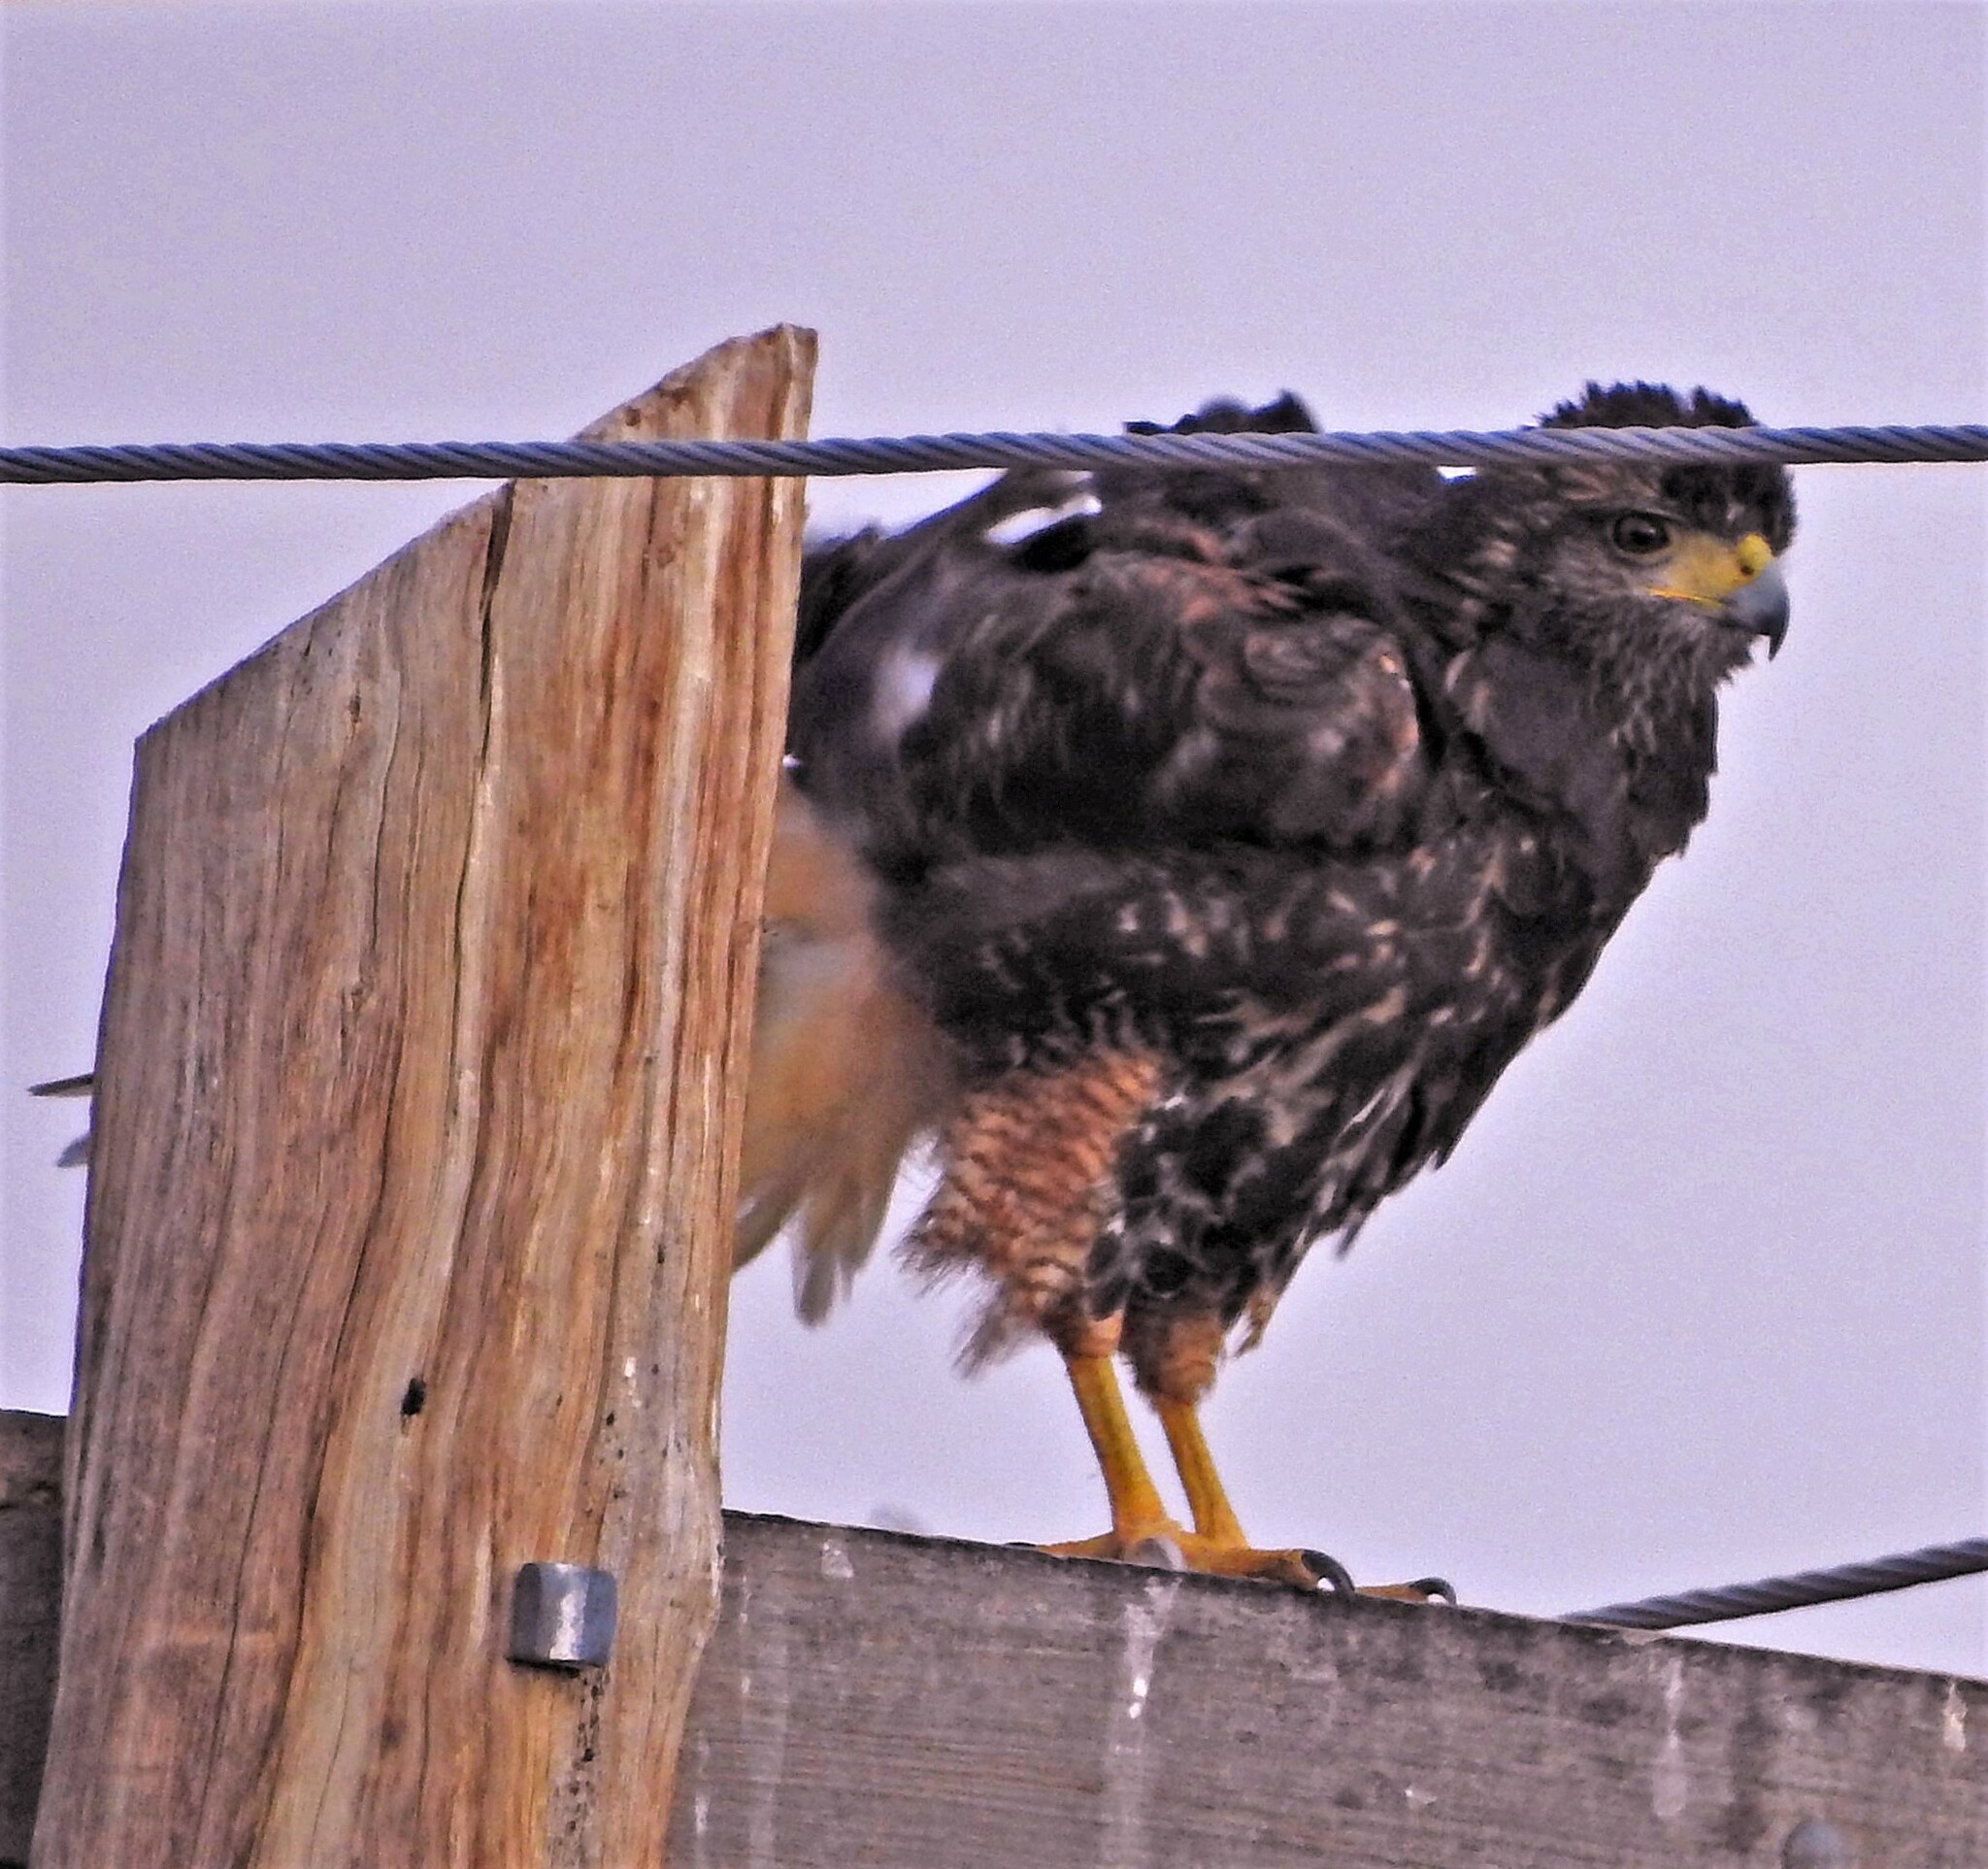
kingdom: Animalia
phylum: Chordata
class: Aves
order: Accipitriformes
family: Accipitridae
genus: Parabuteo
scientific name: Parabuteo unicinctus
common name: Harris's hawk
